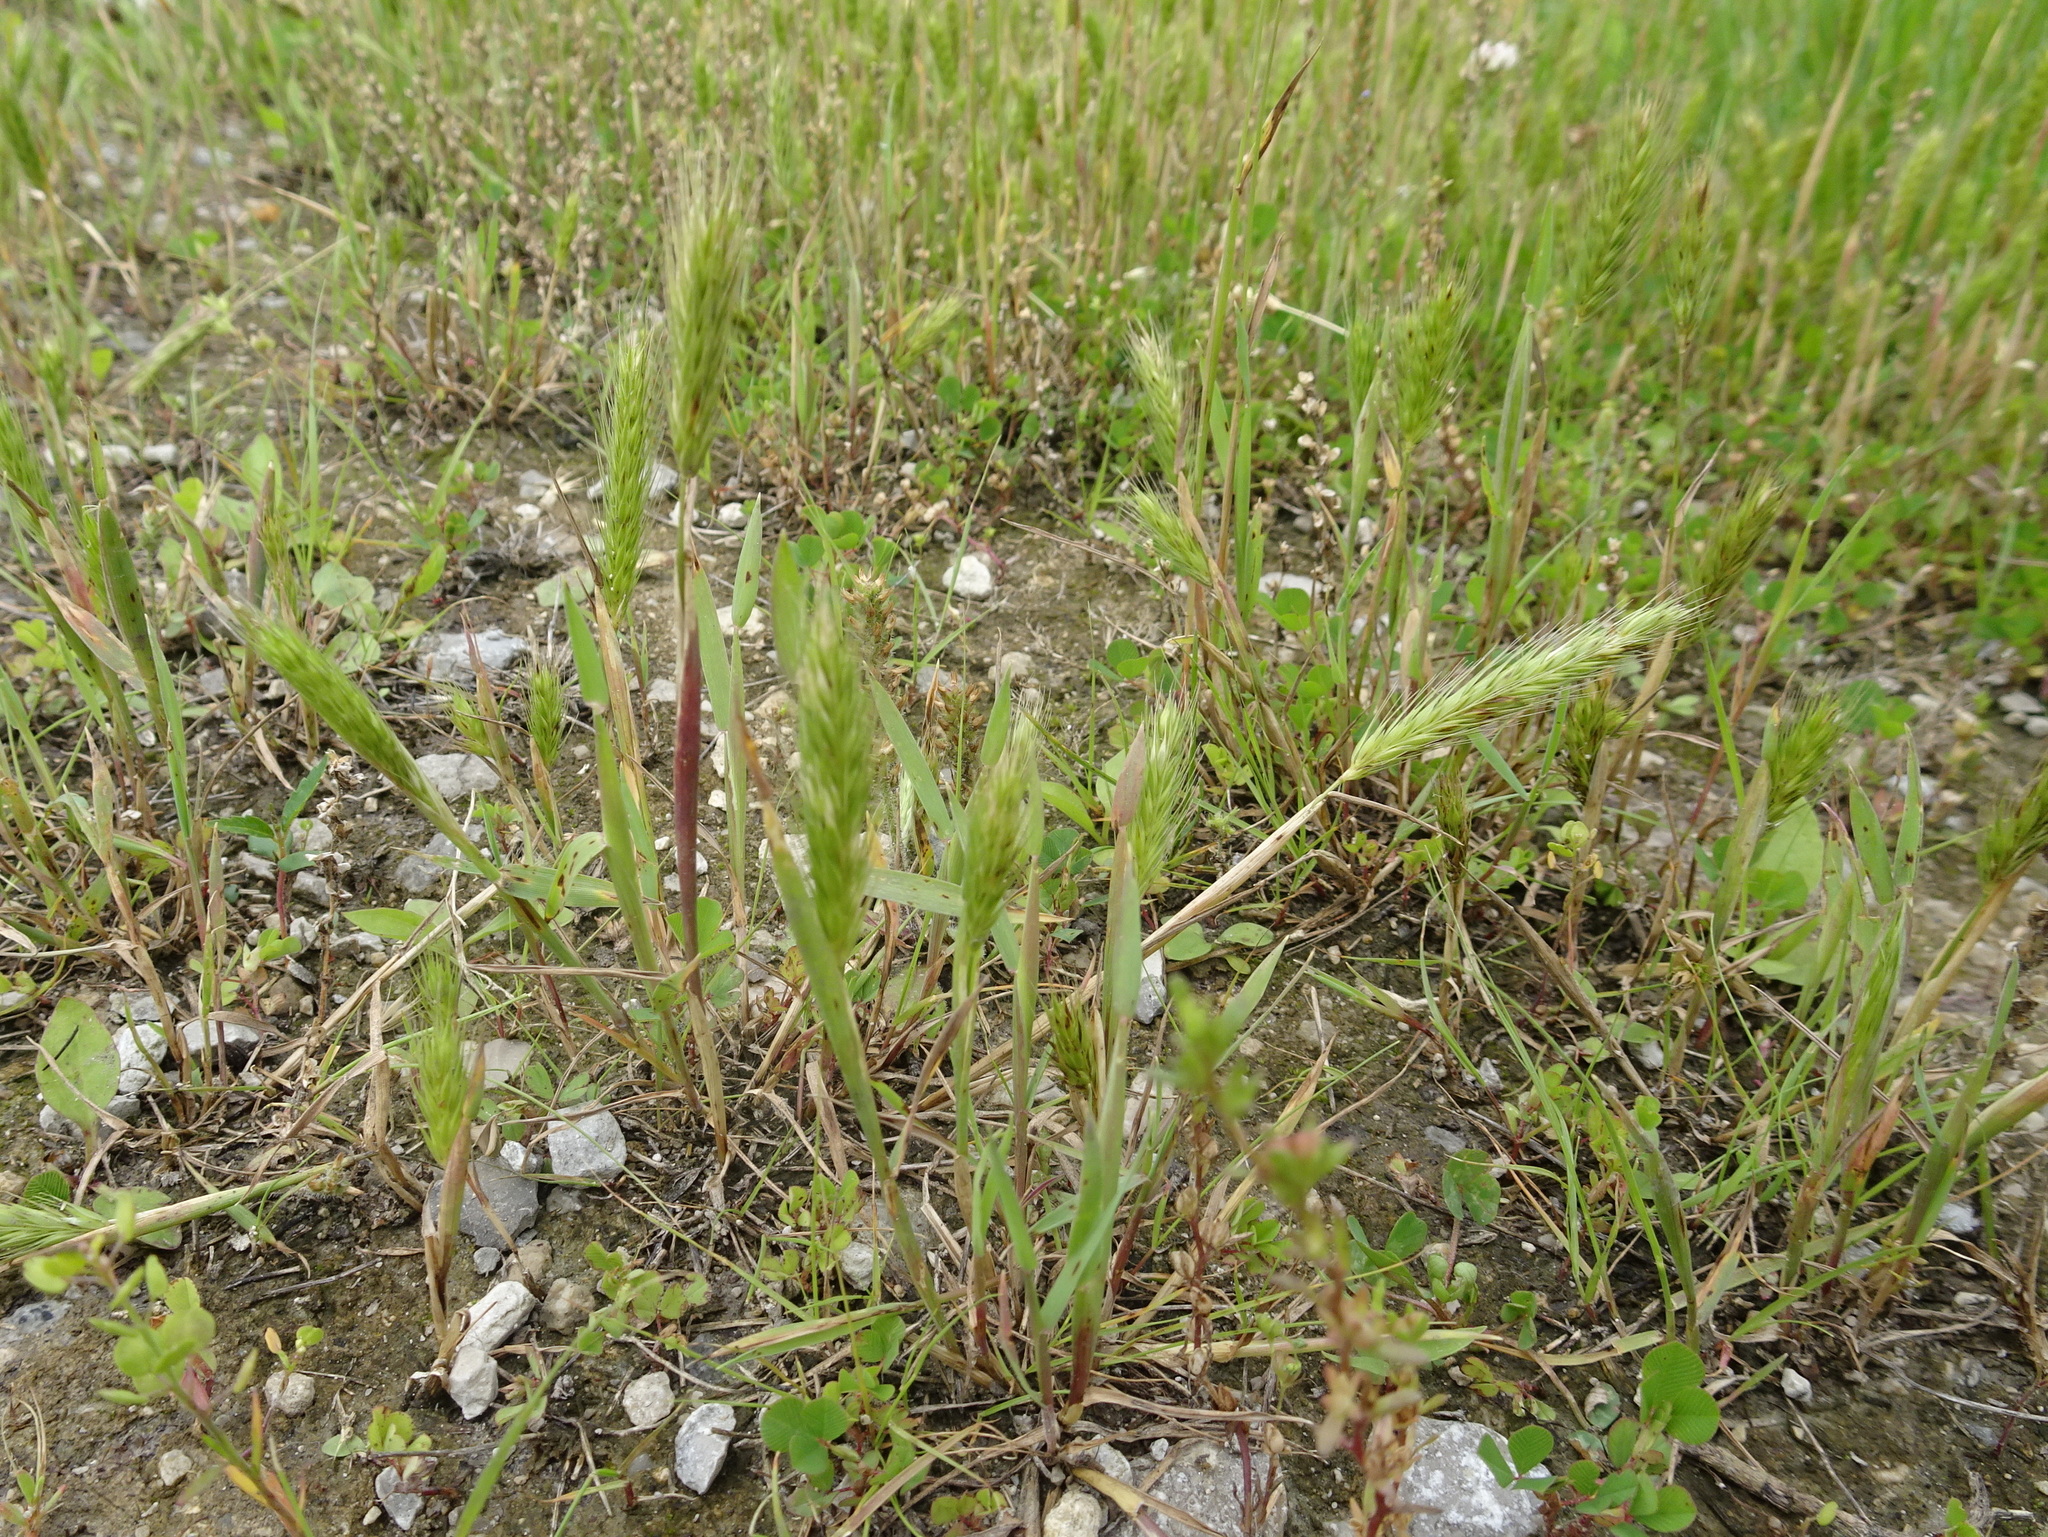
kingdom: Plantae
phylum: Tracheophyta
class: Liliopsida
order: Poales
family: Poaceae
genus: Hordeum
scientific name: Hordeum pusillum
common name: Little barley
